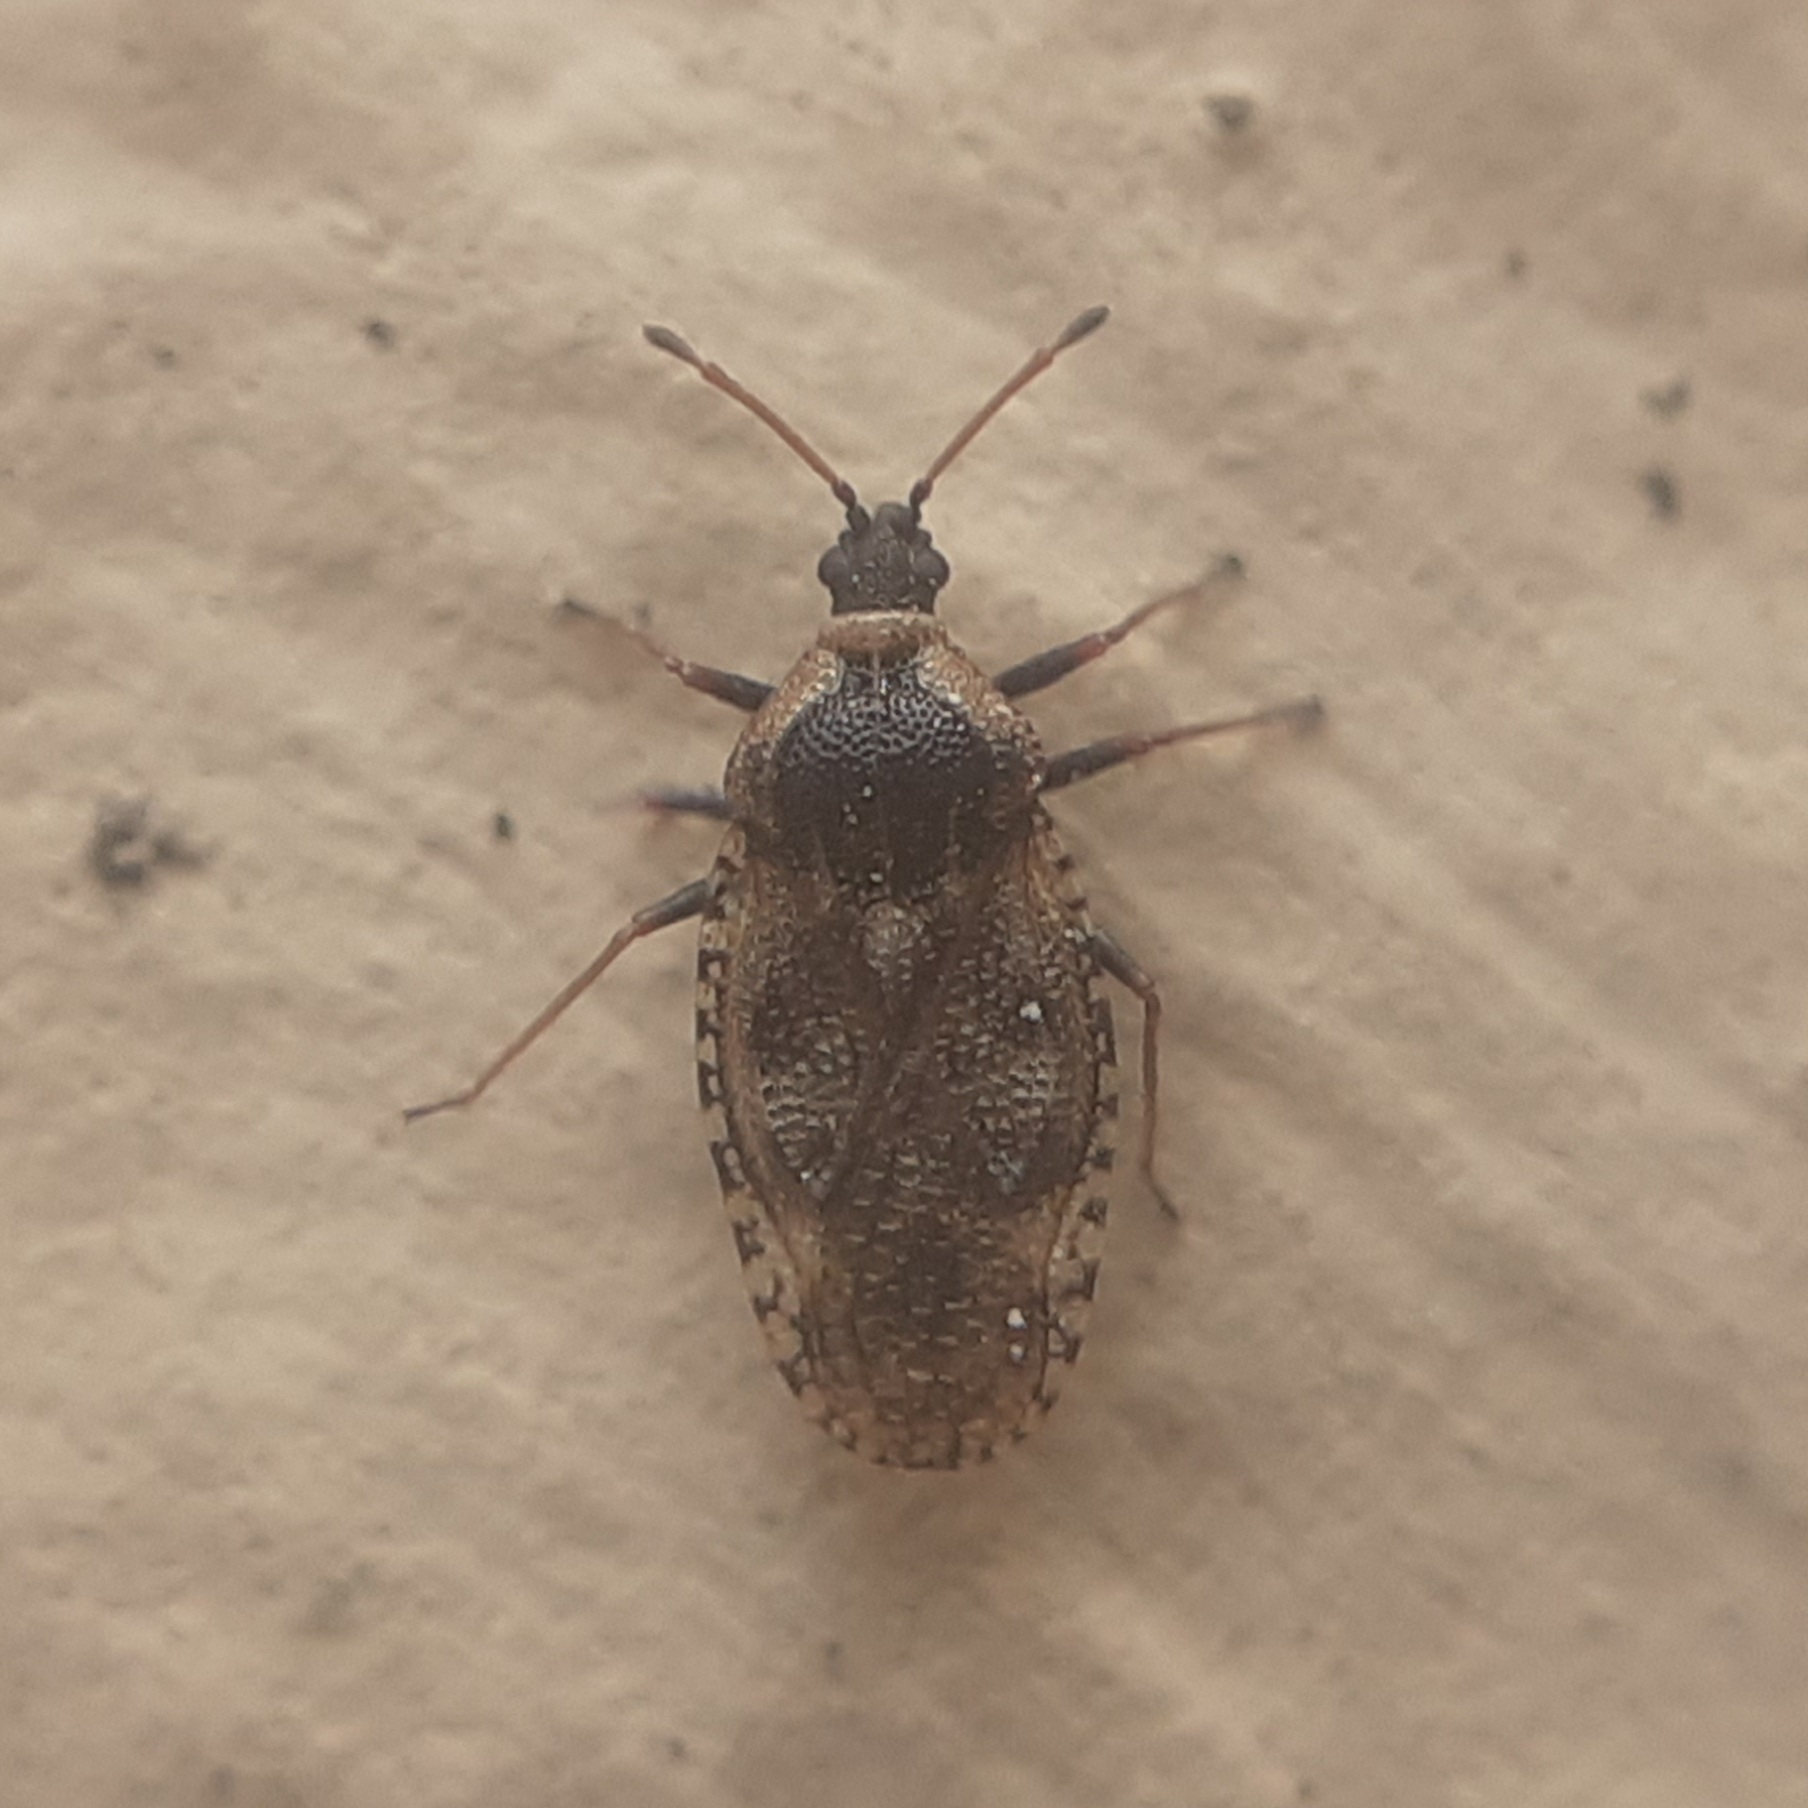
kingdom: Animalia
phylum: Arthropoda
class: Insecta
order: Hemiptera
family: Tingidae
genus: Dictyla
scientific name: Dictyla echii
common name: Lace bug
